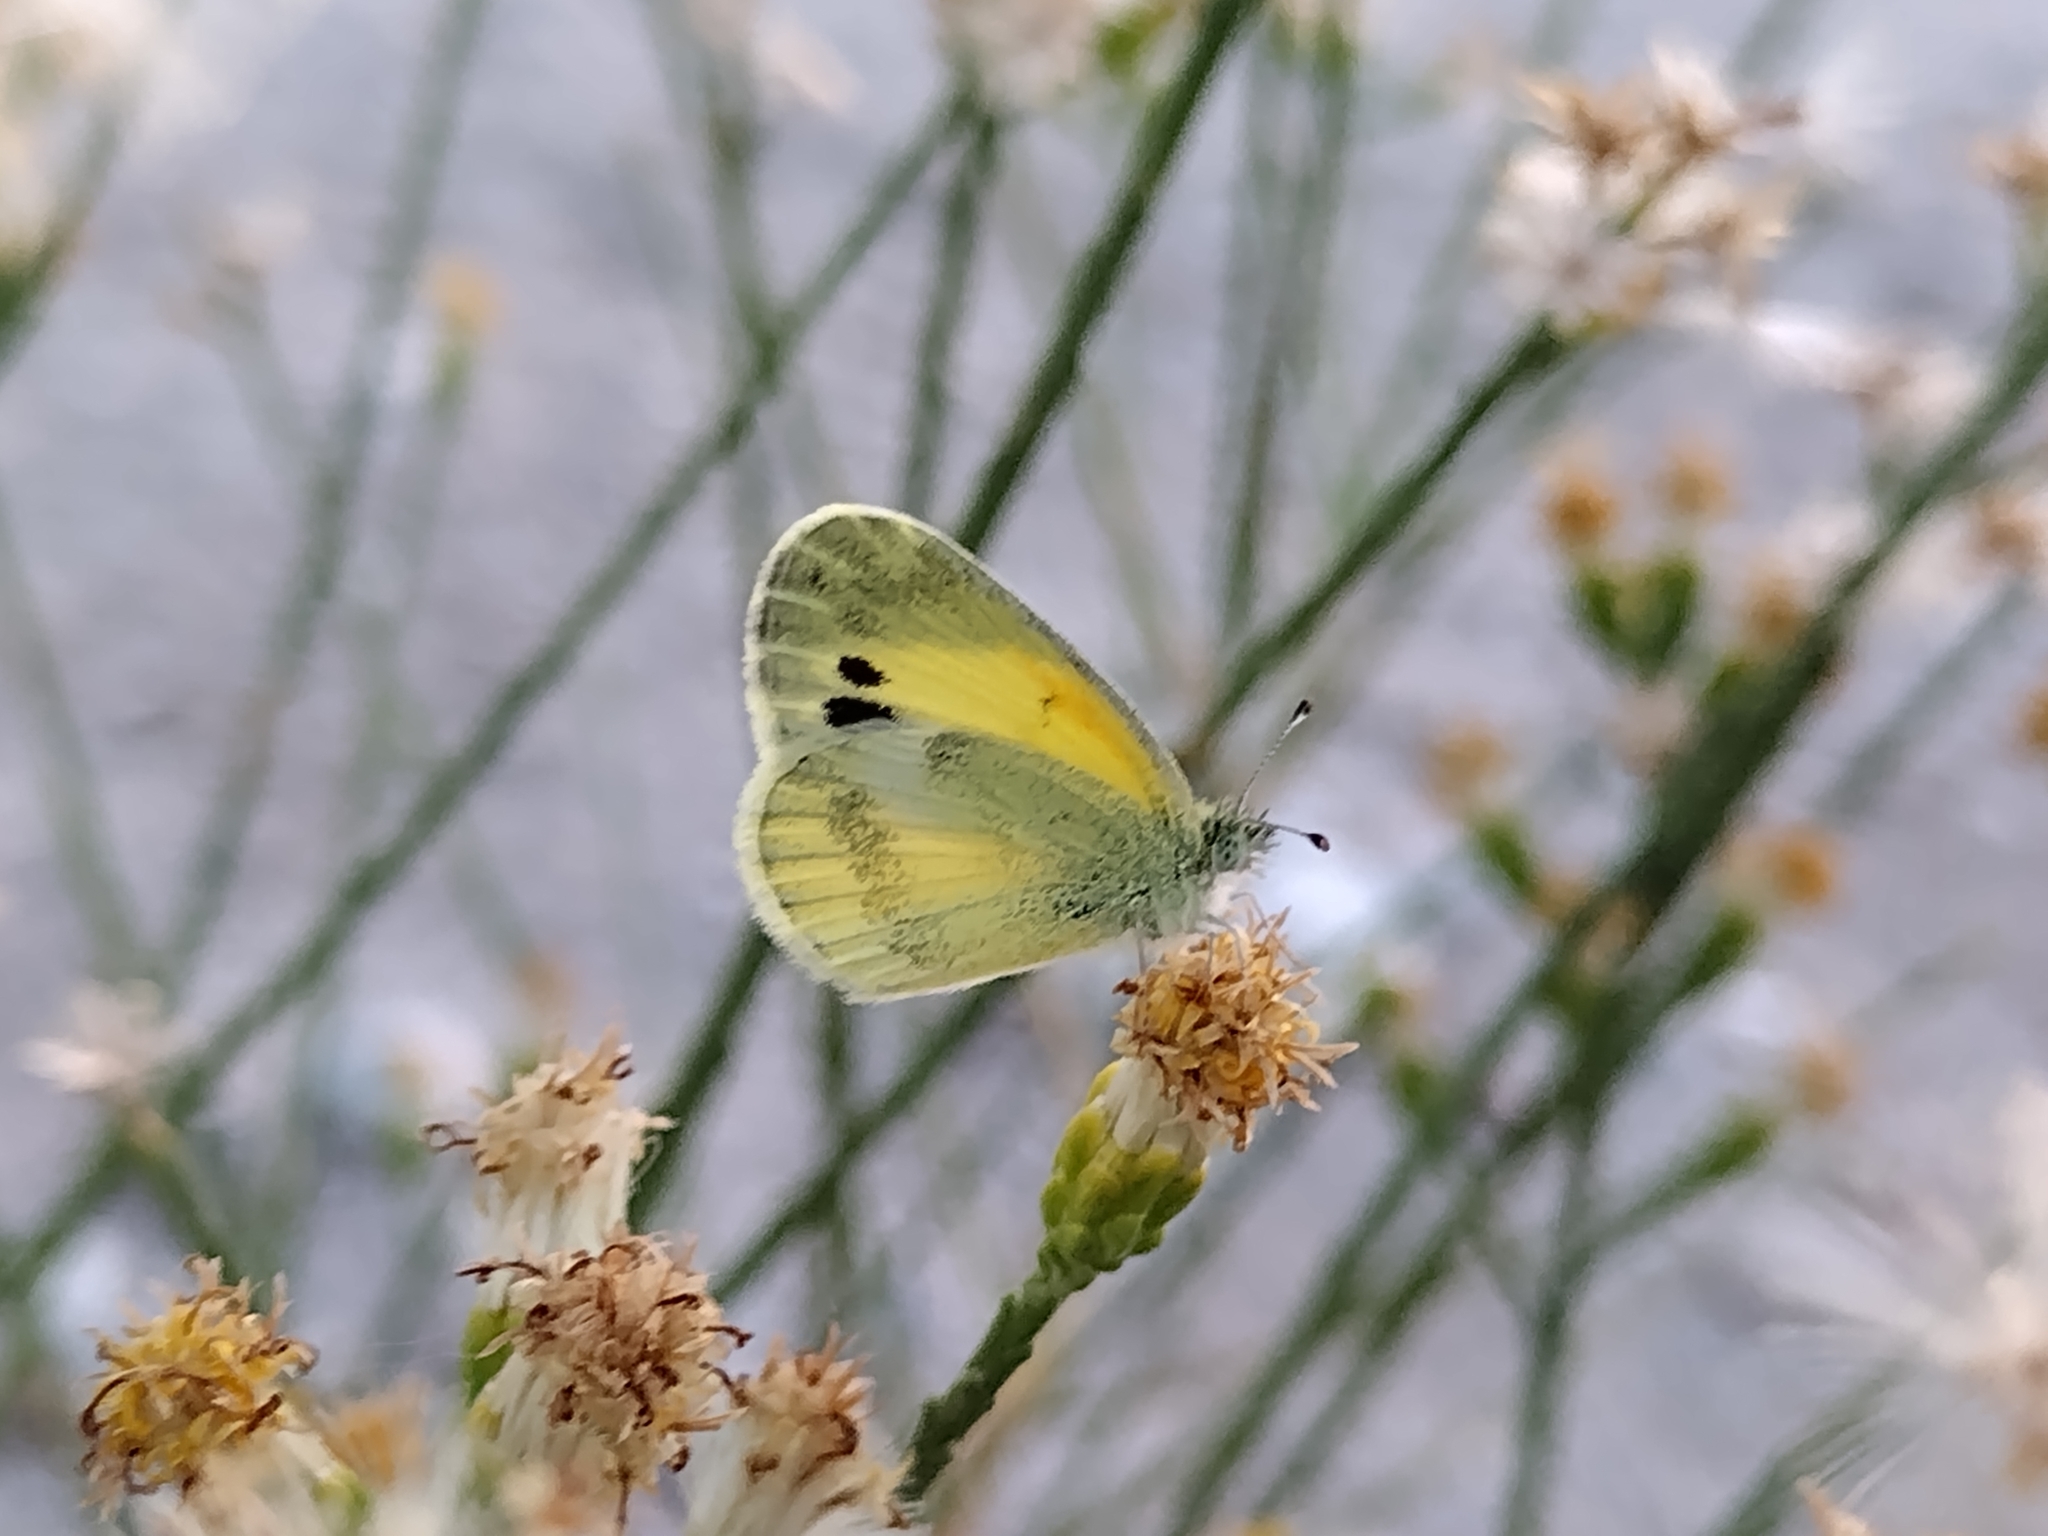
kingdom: Animalia
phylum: Arthropoda
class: Insecta
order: Lepidoptera
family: Pieridae
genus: Nathalis
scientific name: Nathalis iole
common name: Dainty sulphur
